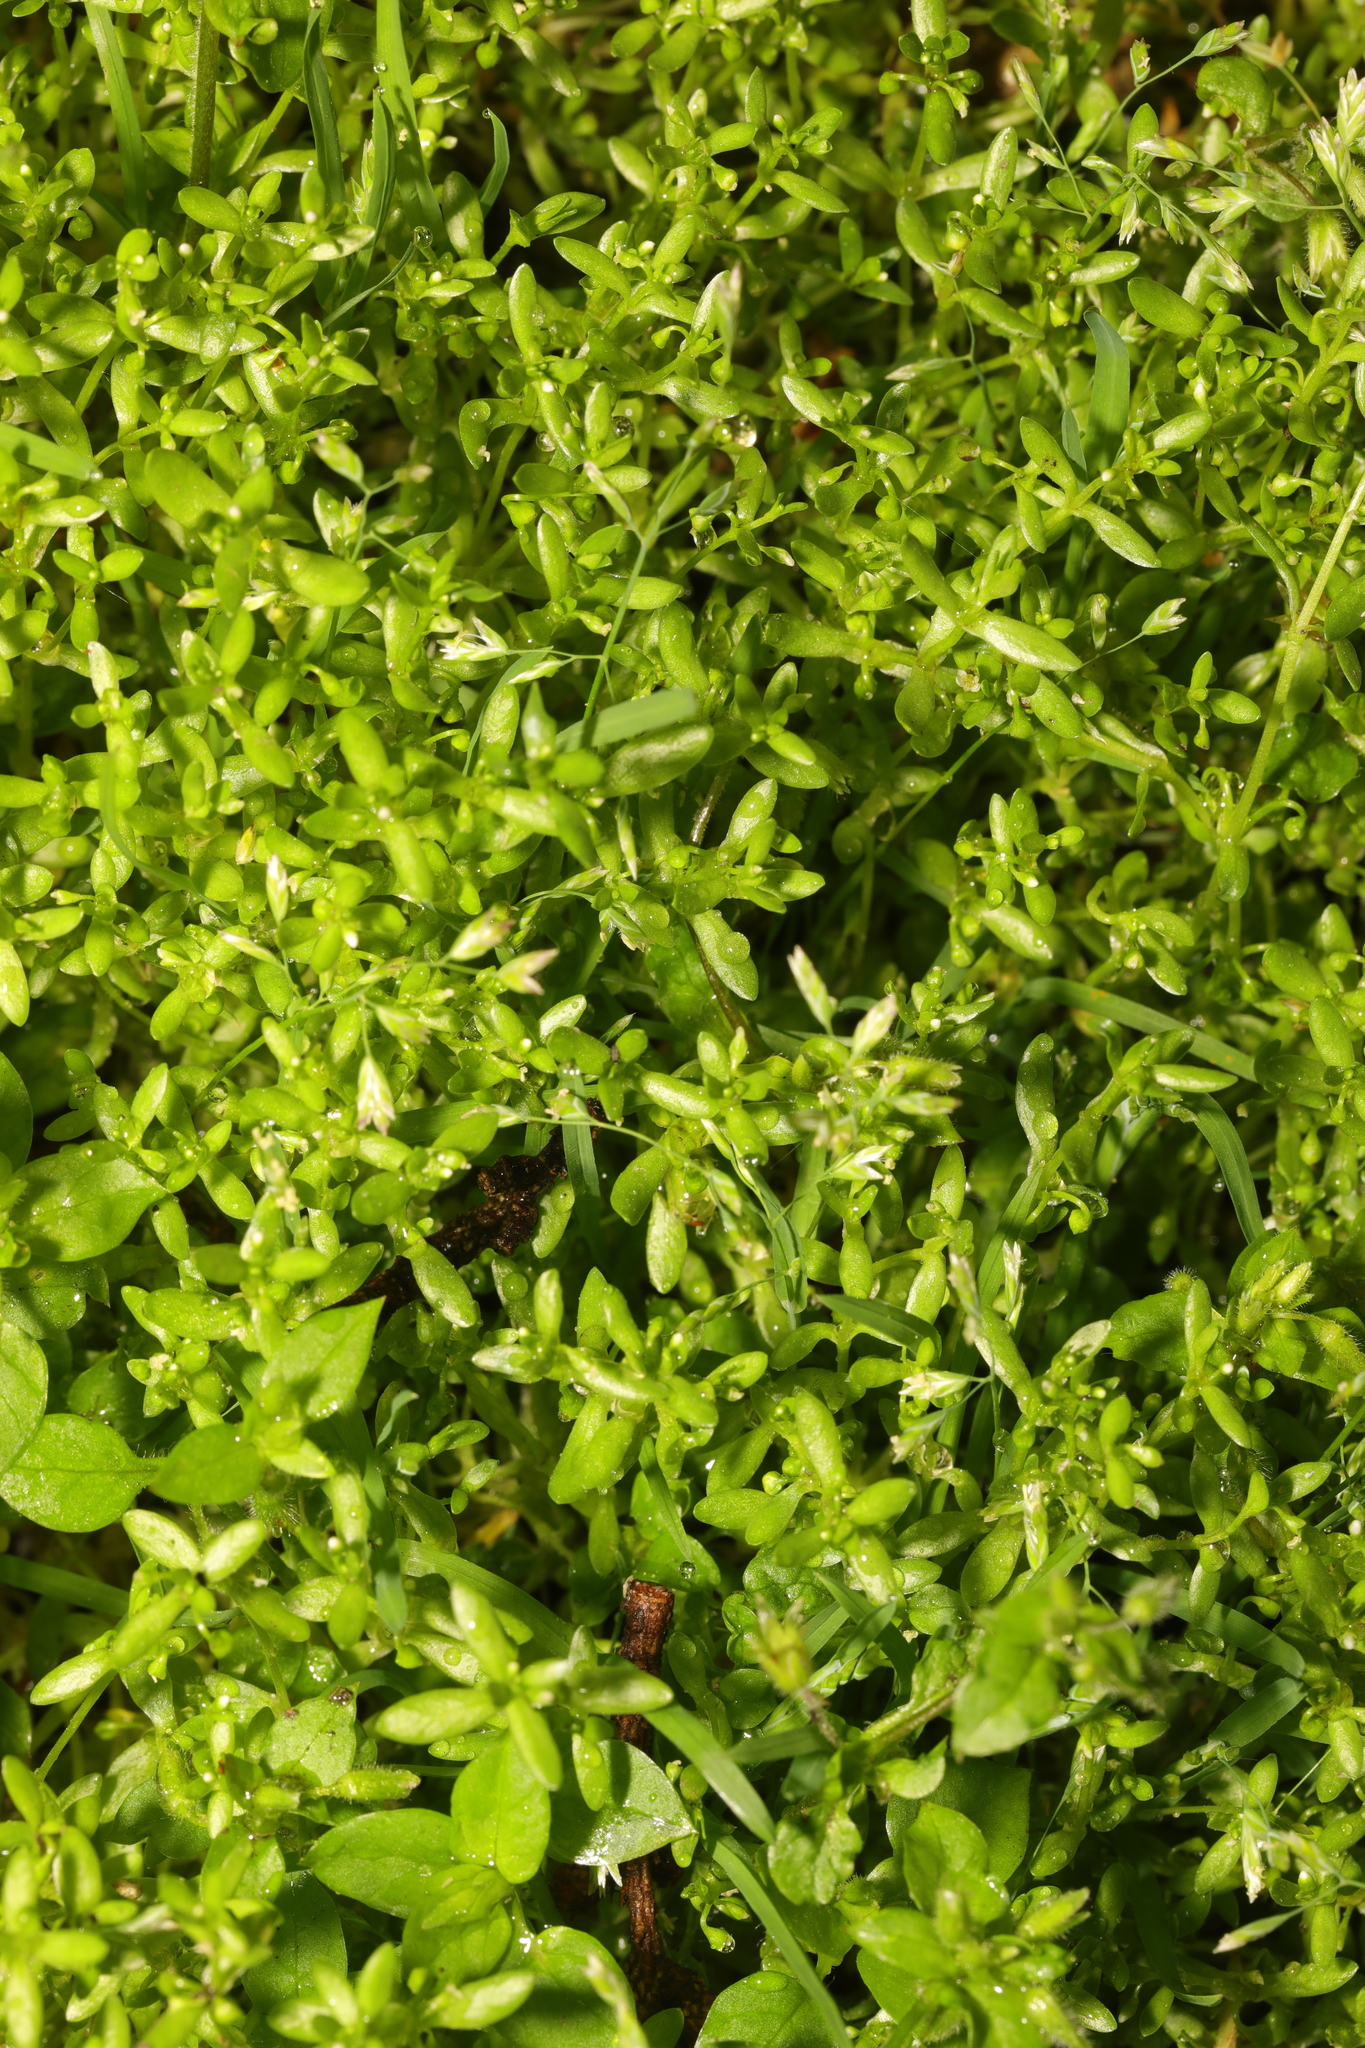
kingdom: Plantae
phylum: Tracheophyta
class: Magnoliopsida
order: Caryophyllales
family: Montiaceae
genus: Montia
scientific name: Montia fontana
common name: Blinks
